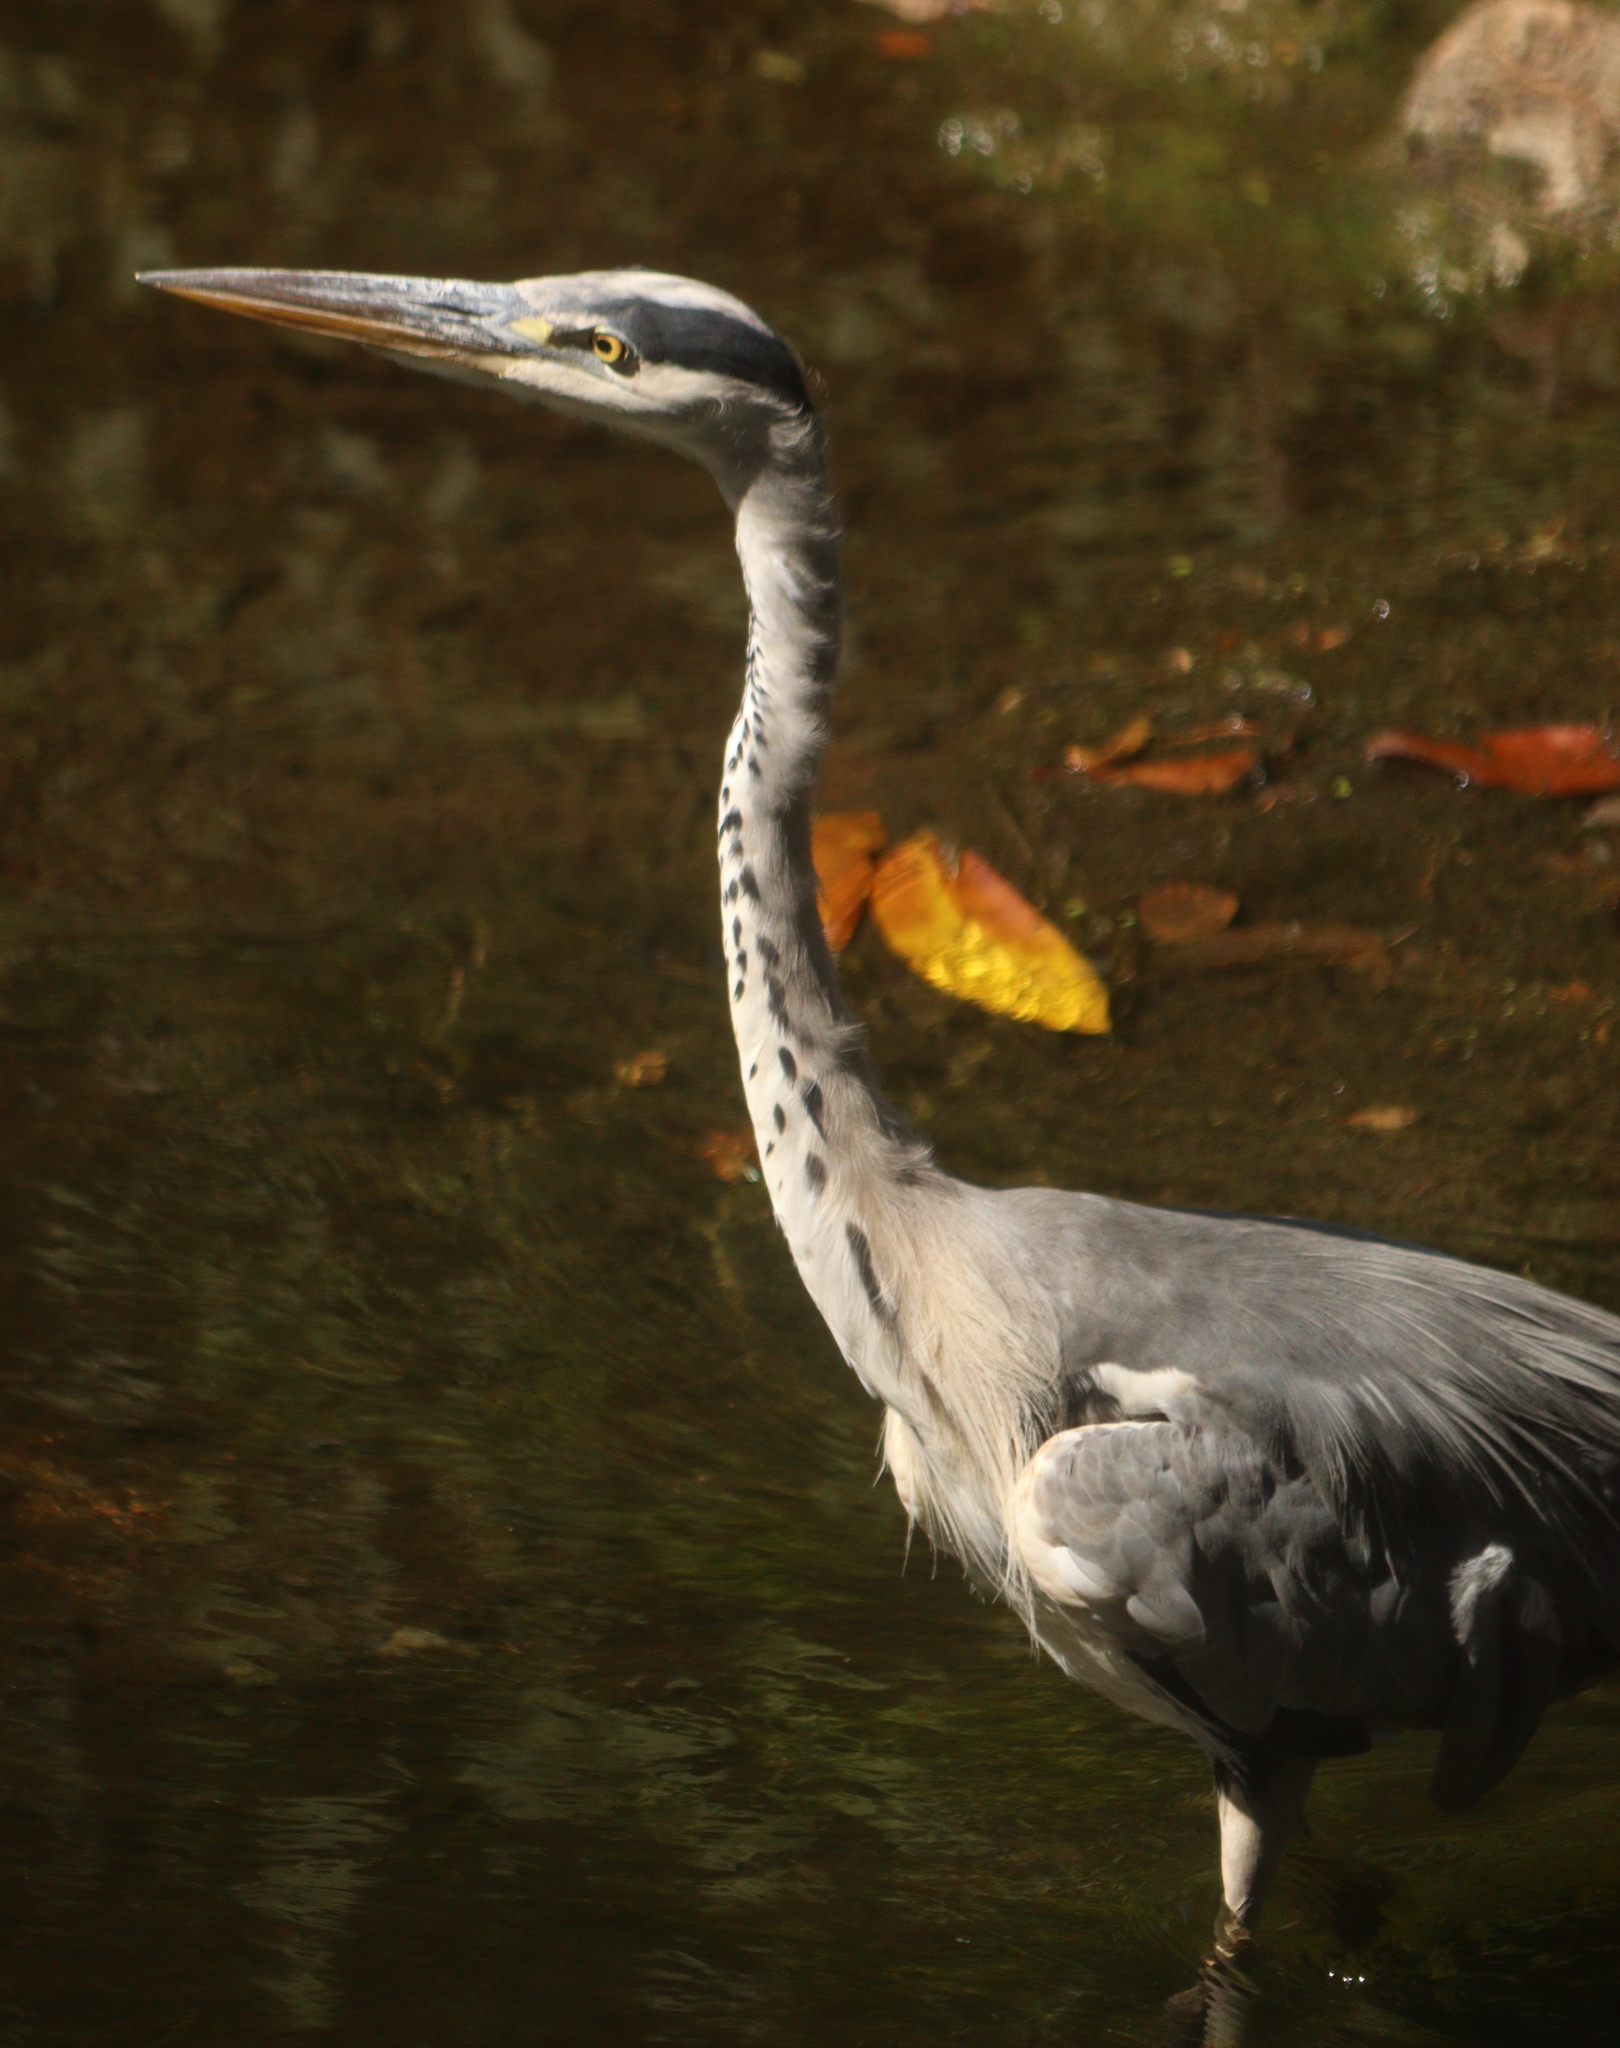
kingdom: Animalia
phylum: Chordata
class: Aves
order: Pelecaniformes
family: Ardeidae
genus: Ardea
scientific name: Ardea cinerea
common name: Grey heron
